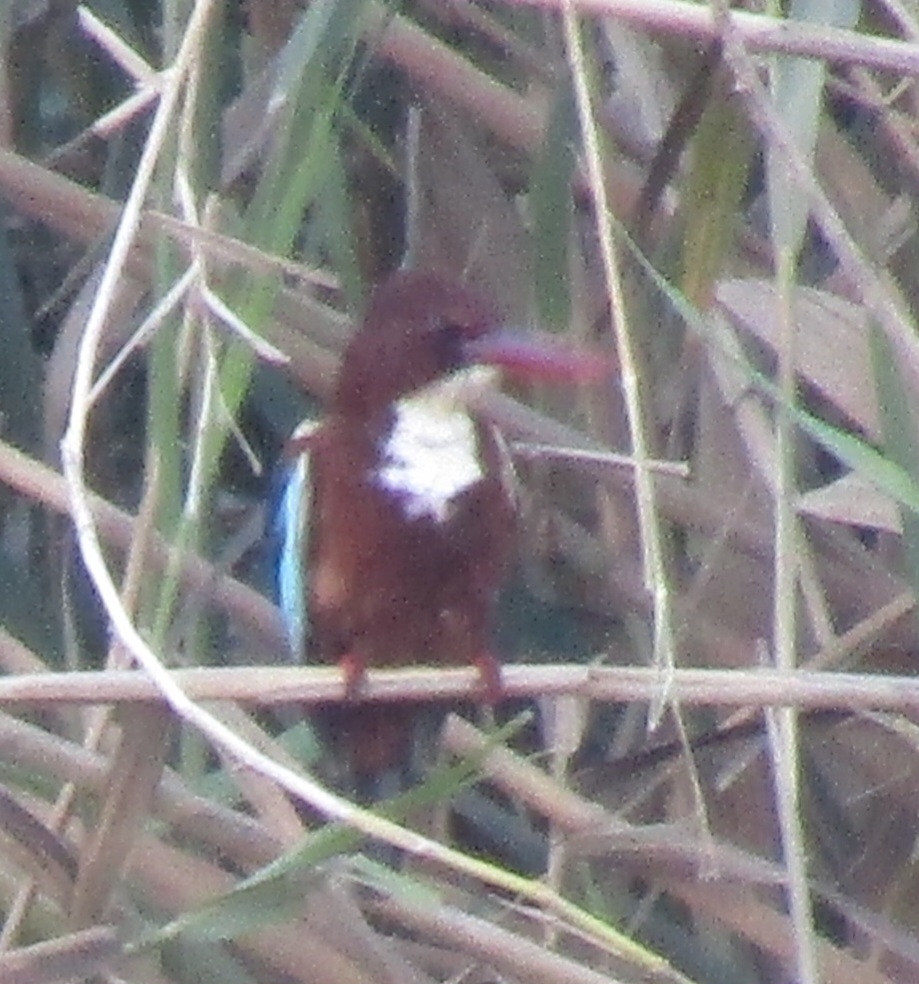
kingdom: Animalia
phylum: Chordata
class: Aves
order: Coraciiformes
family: Alcedinidae
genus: Halcyon
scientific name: Halcyon smyrnensis
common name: White-throated kingfisher
